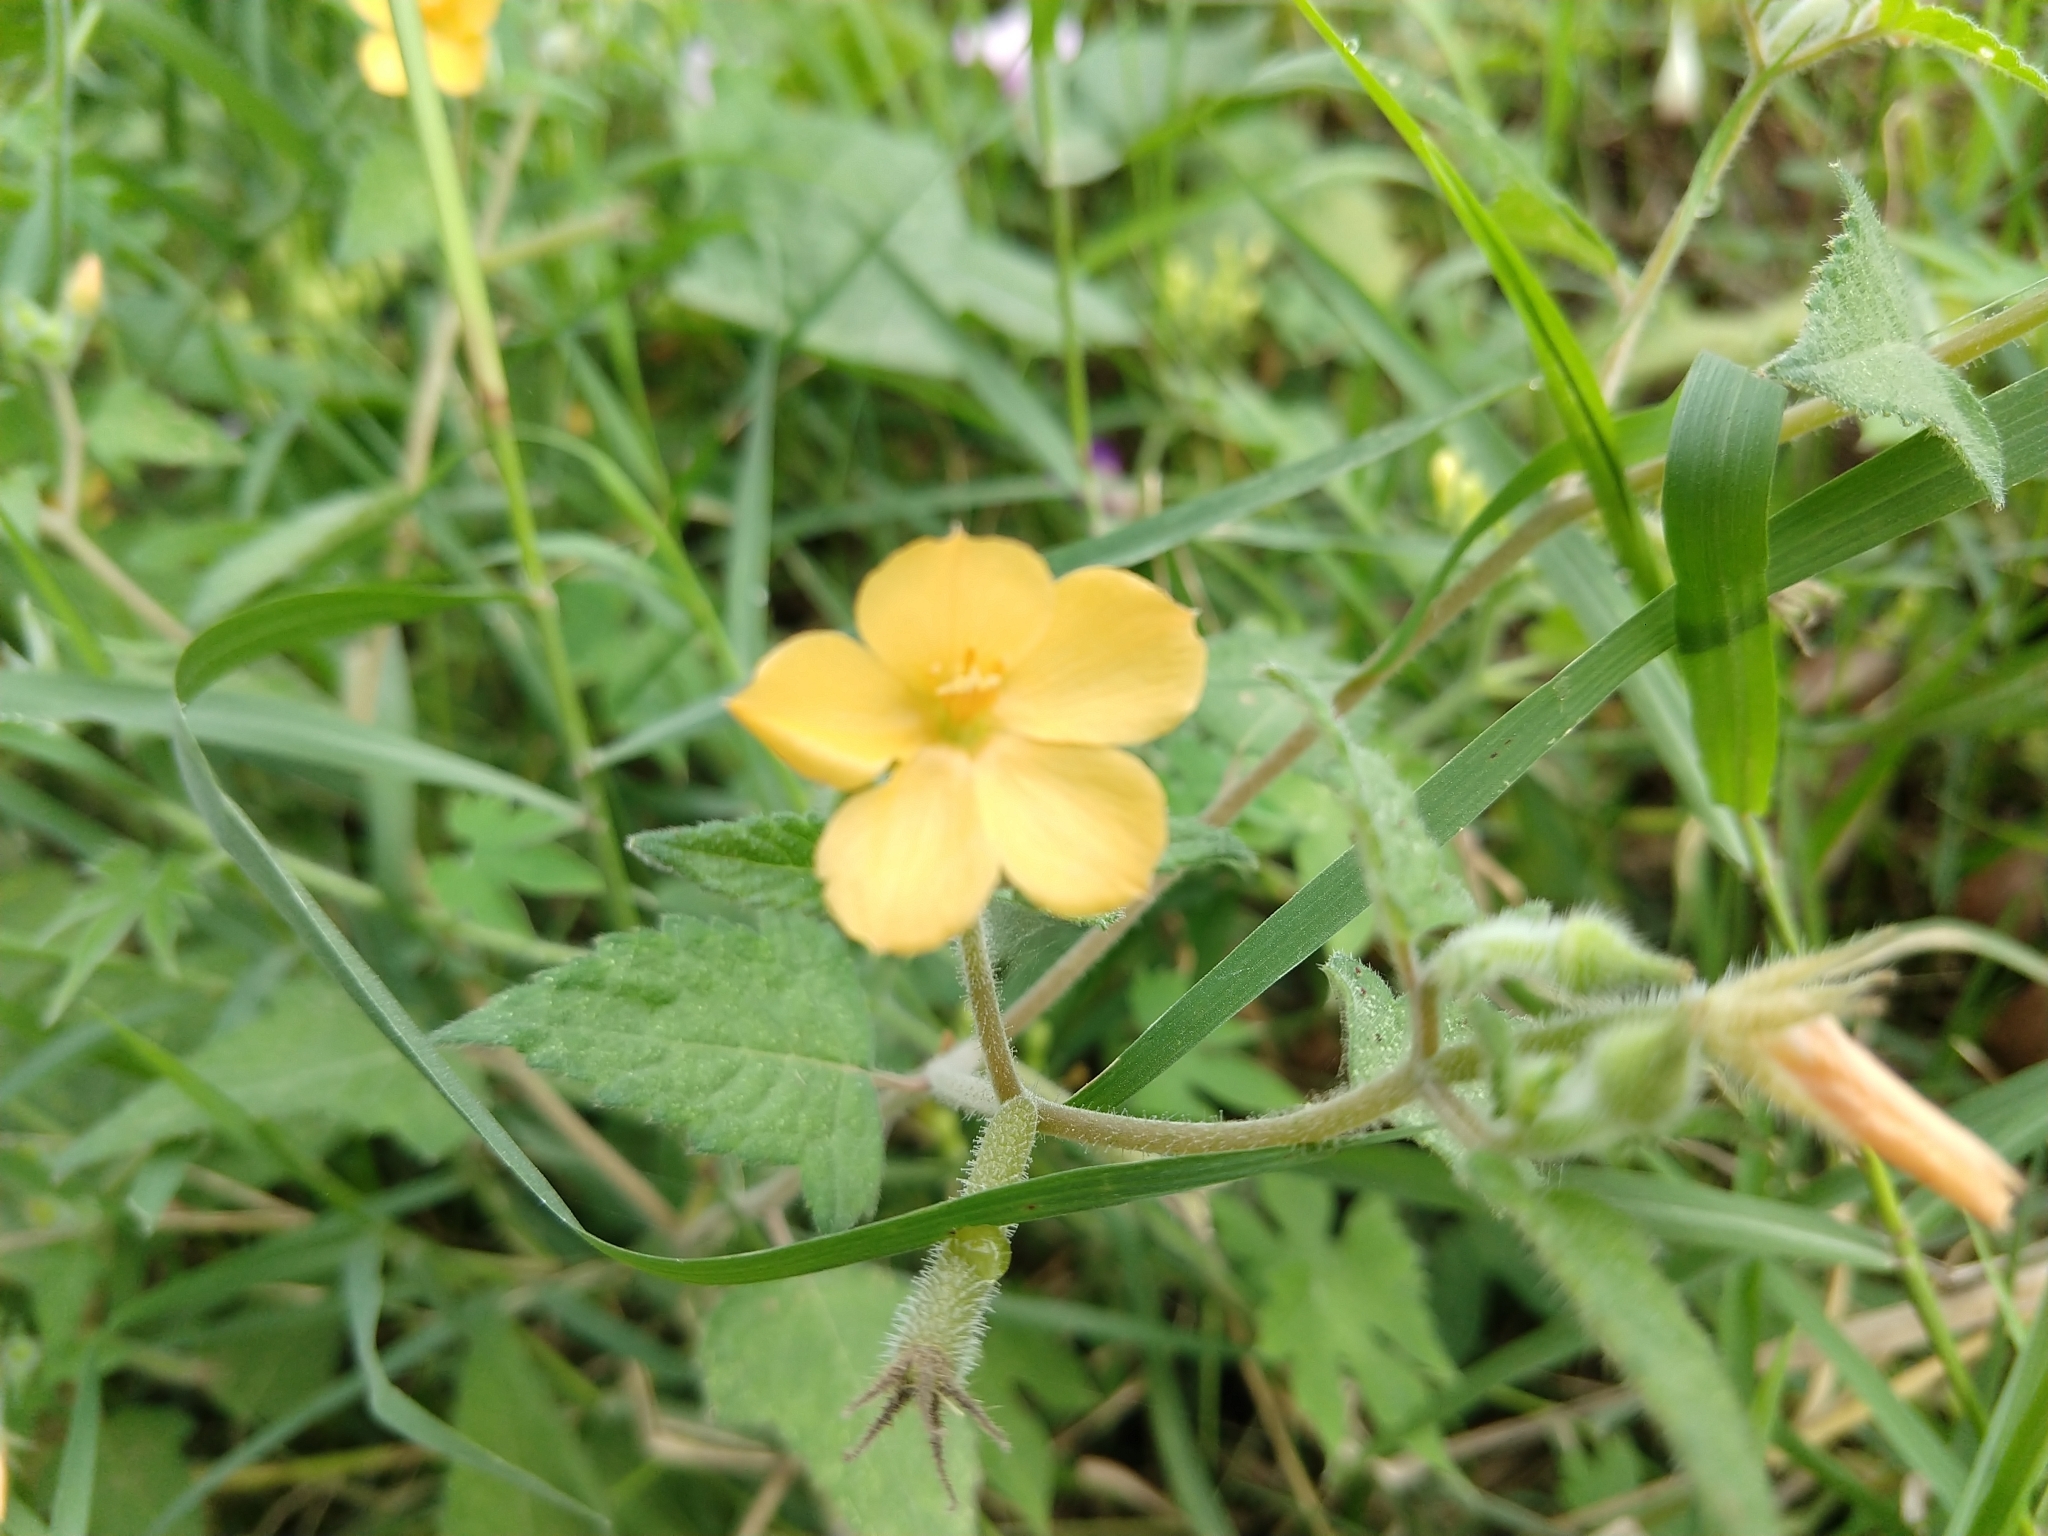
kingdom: Plantae
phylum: Tracheophyta
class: Magnoliopsida
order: Cornales
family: Loasaceae
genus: Mentzelia
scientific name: Mentzelia aspera
